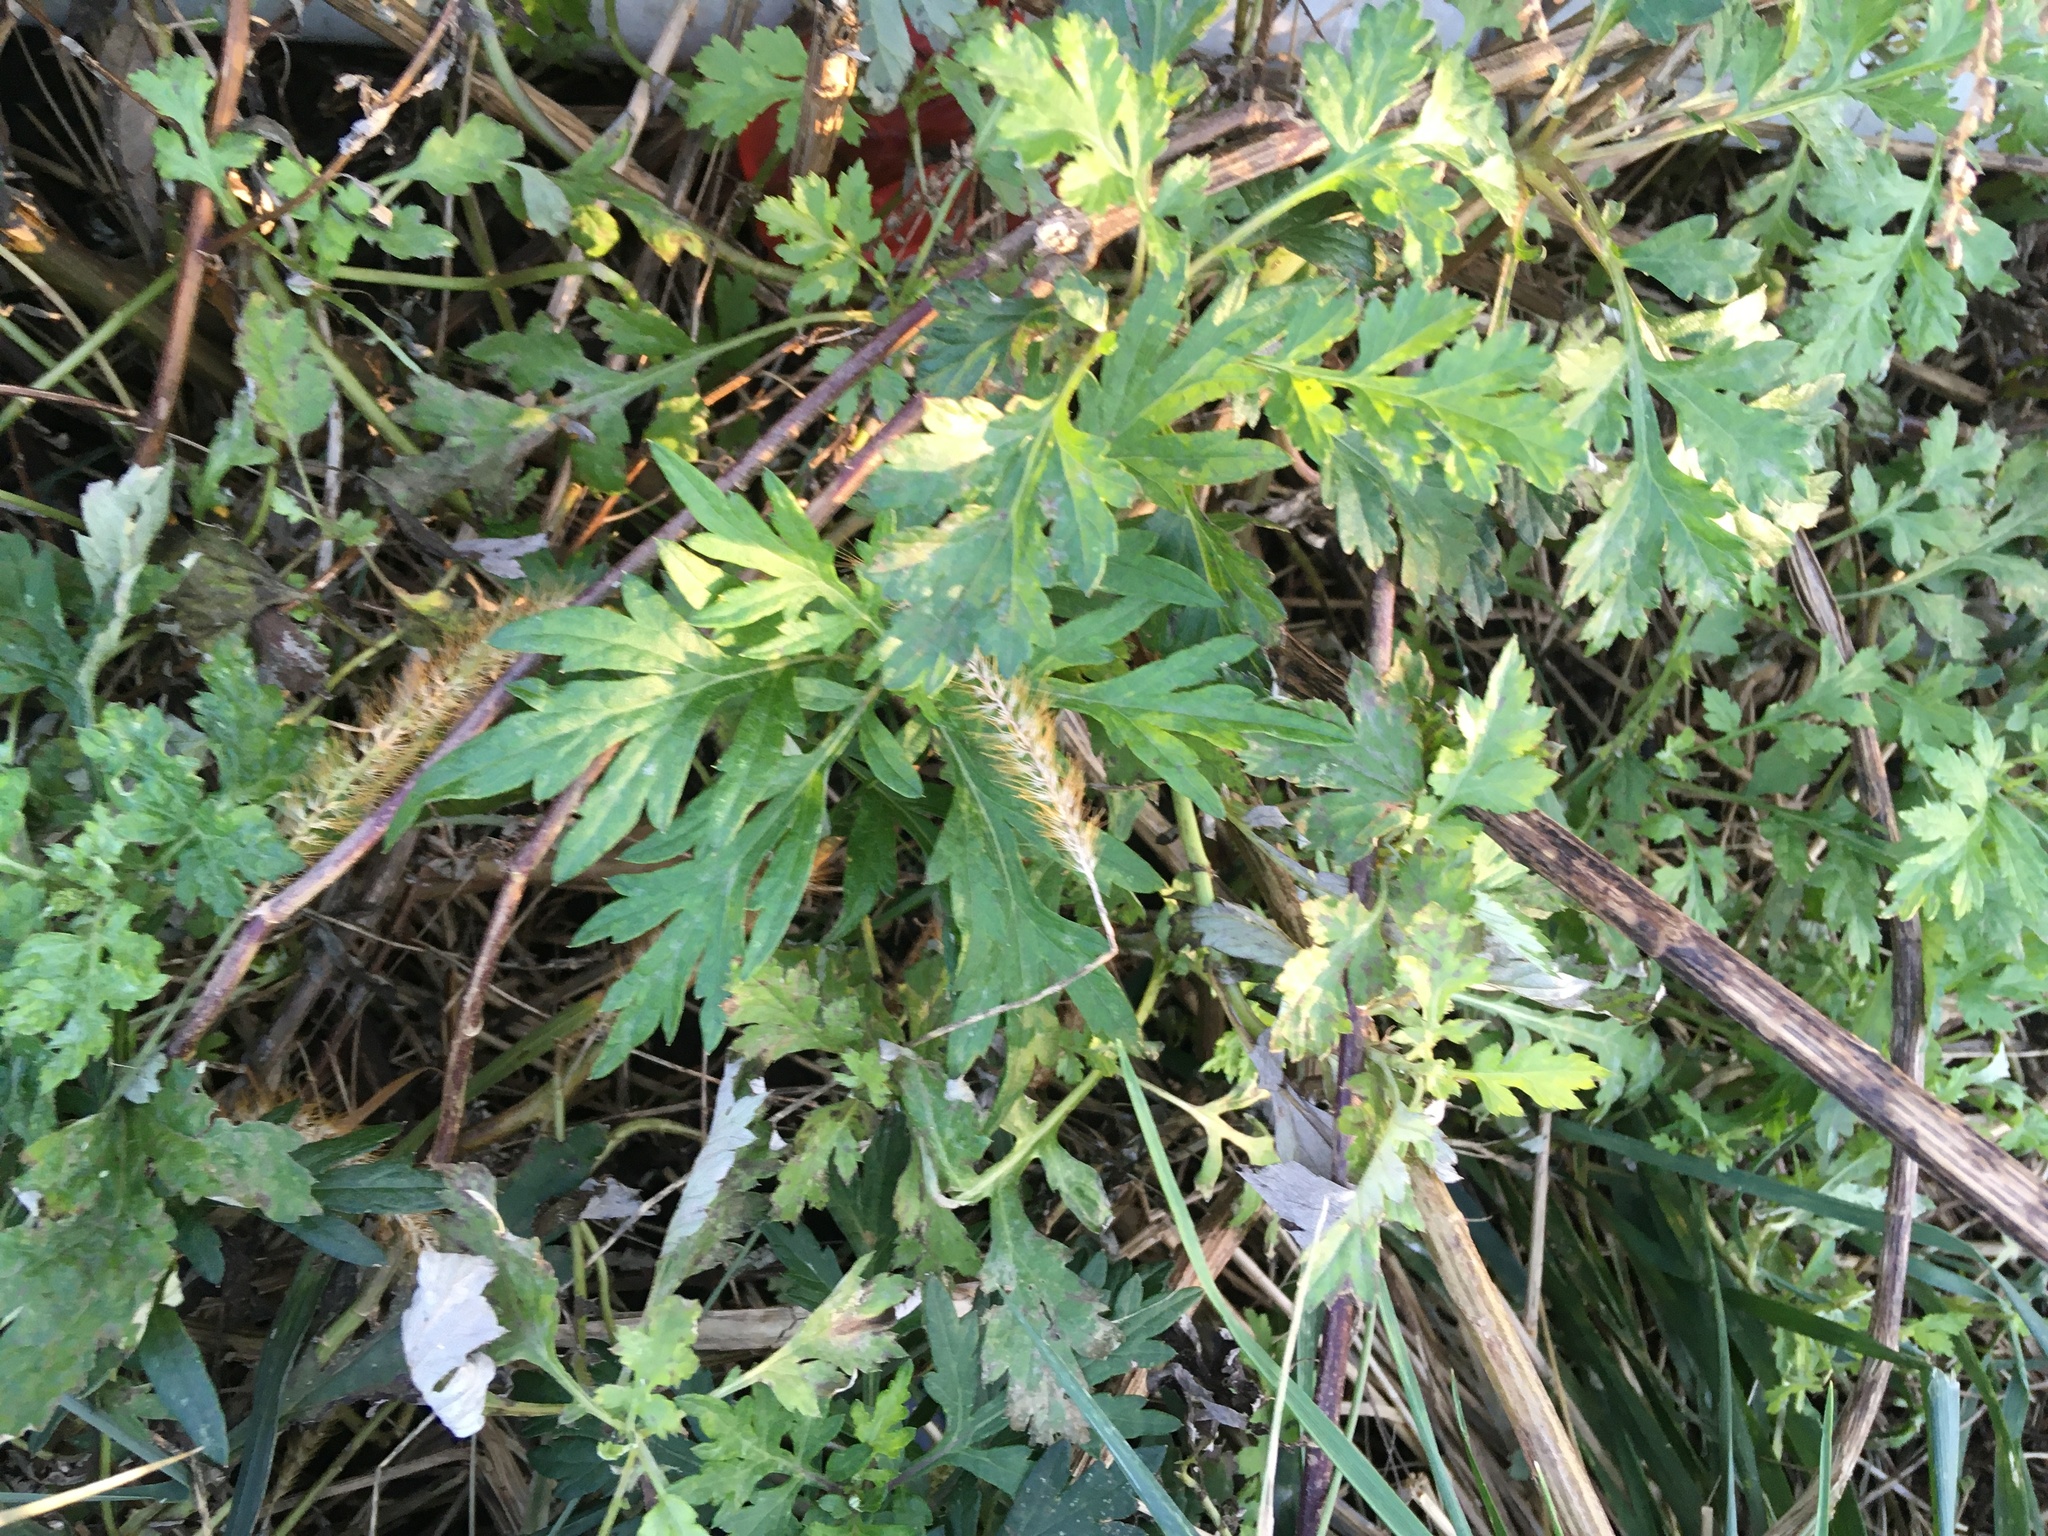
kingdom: Plantae
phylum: Tracheophyta
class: Magnoliopsida
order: Asterales
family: Asteraceae
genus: Artemisia
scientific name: Artemisia vulgaris
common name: Mugwort
